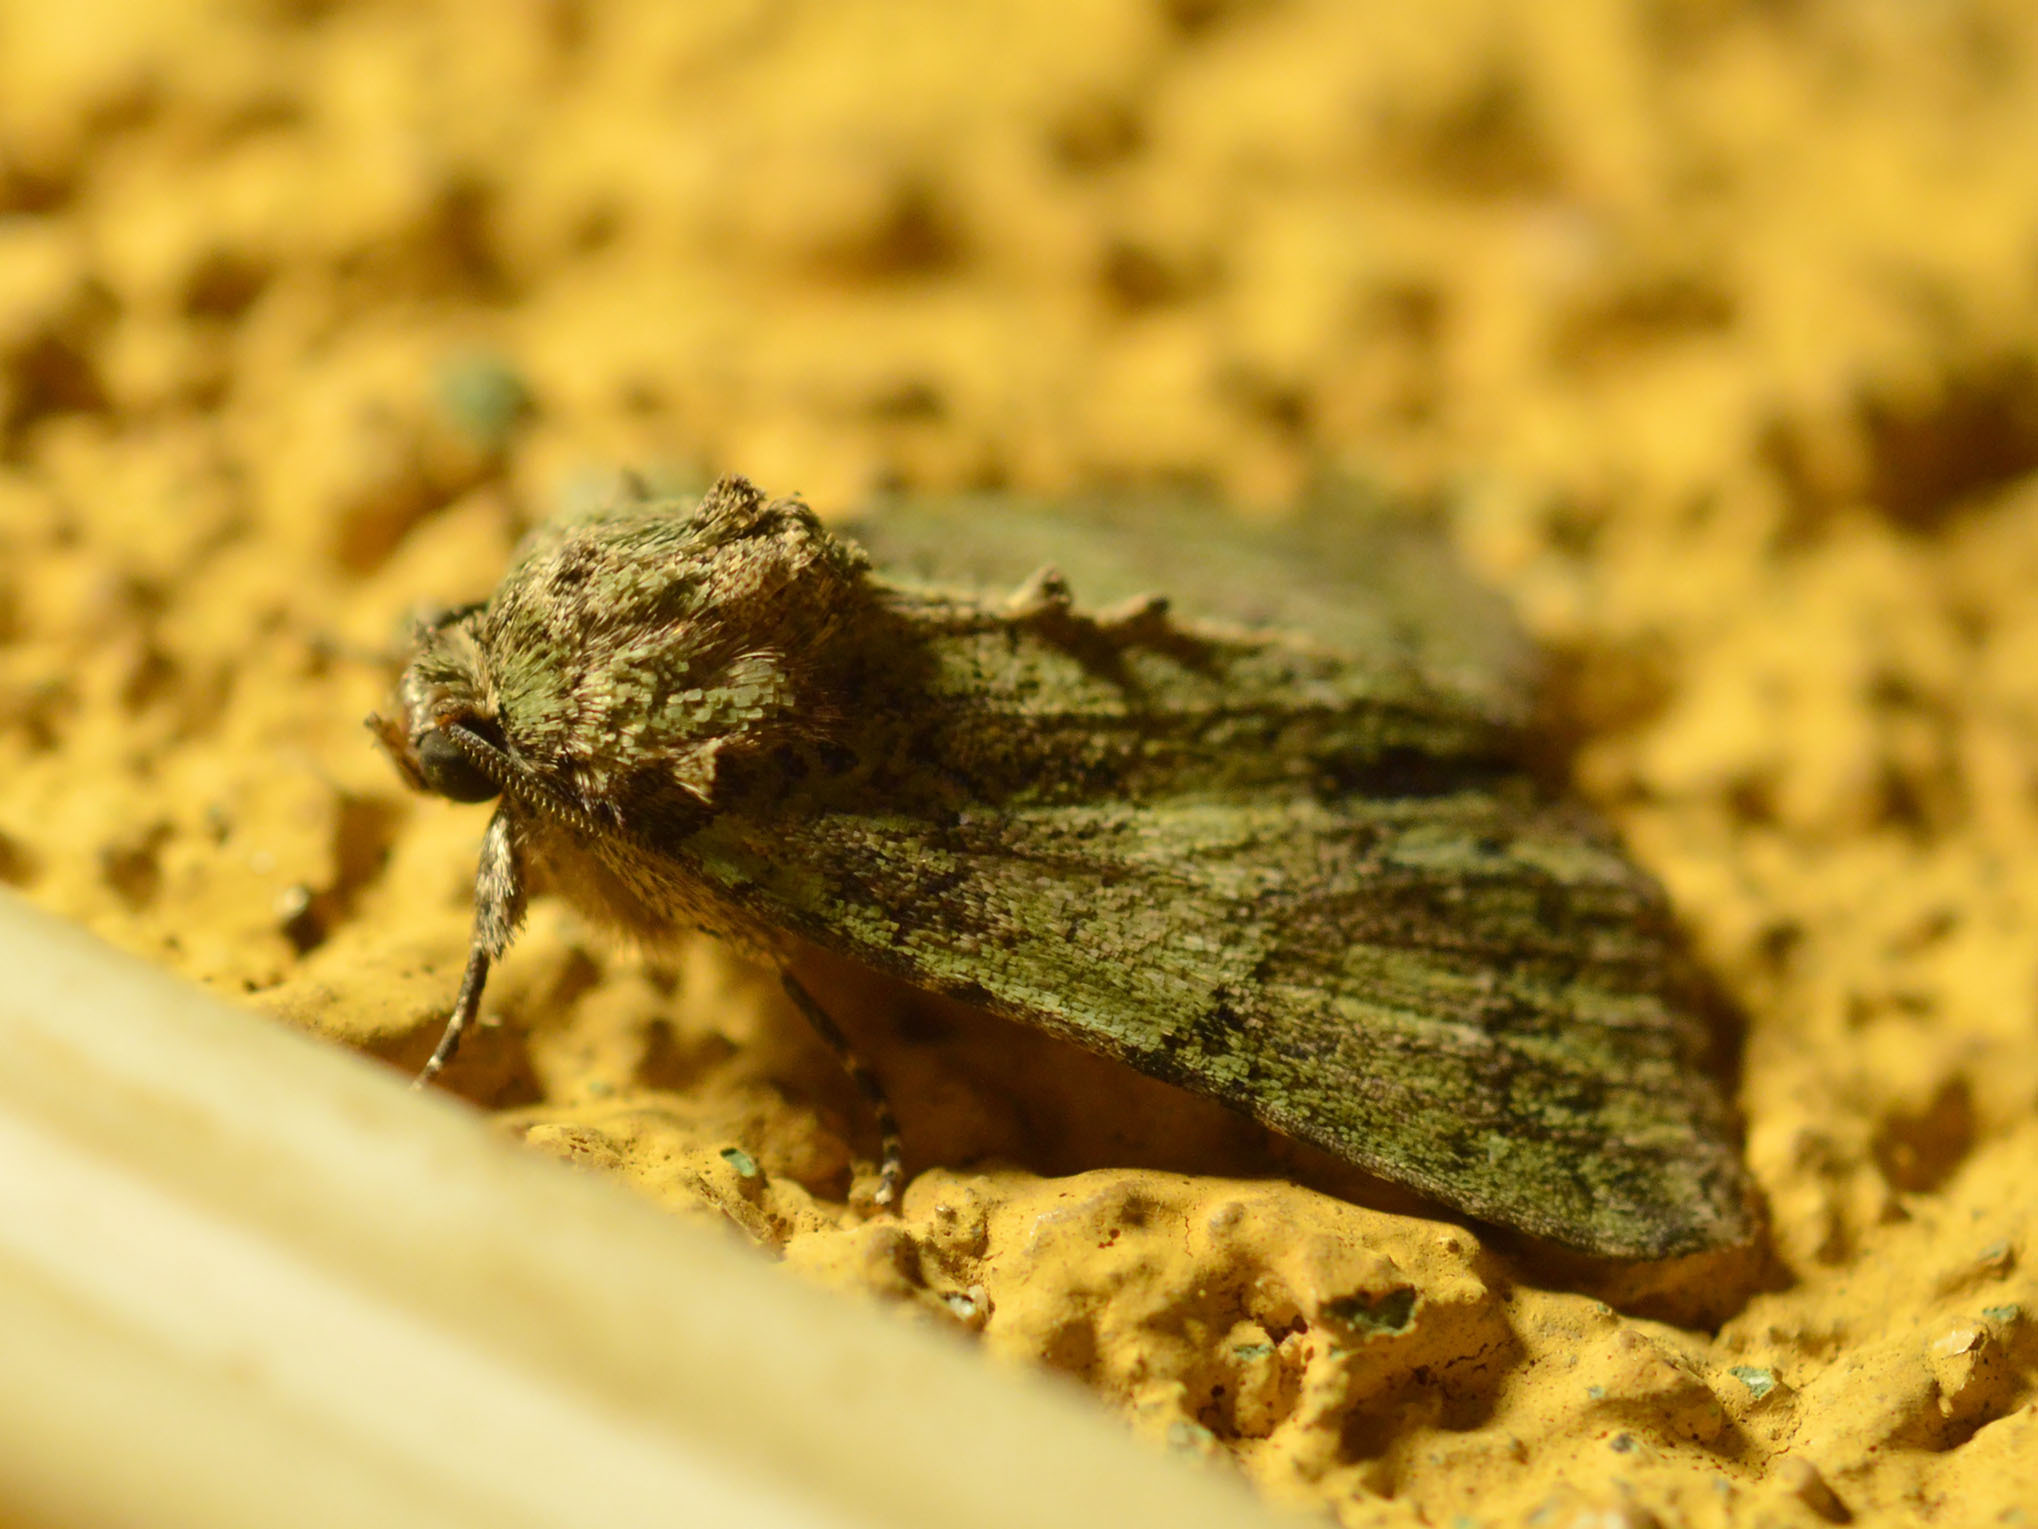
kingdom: Animalia
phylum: Arthropoda
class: Insecta
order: Lepidoptera
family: Noctuidae
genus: Polyphaenis
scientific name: Polyphaenis sericata
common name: Guernsey underwing
